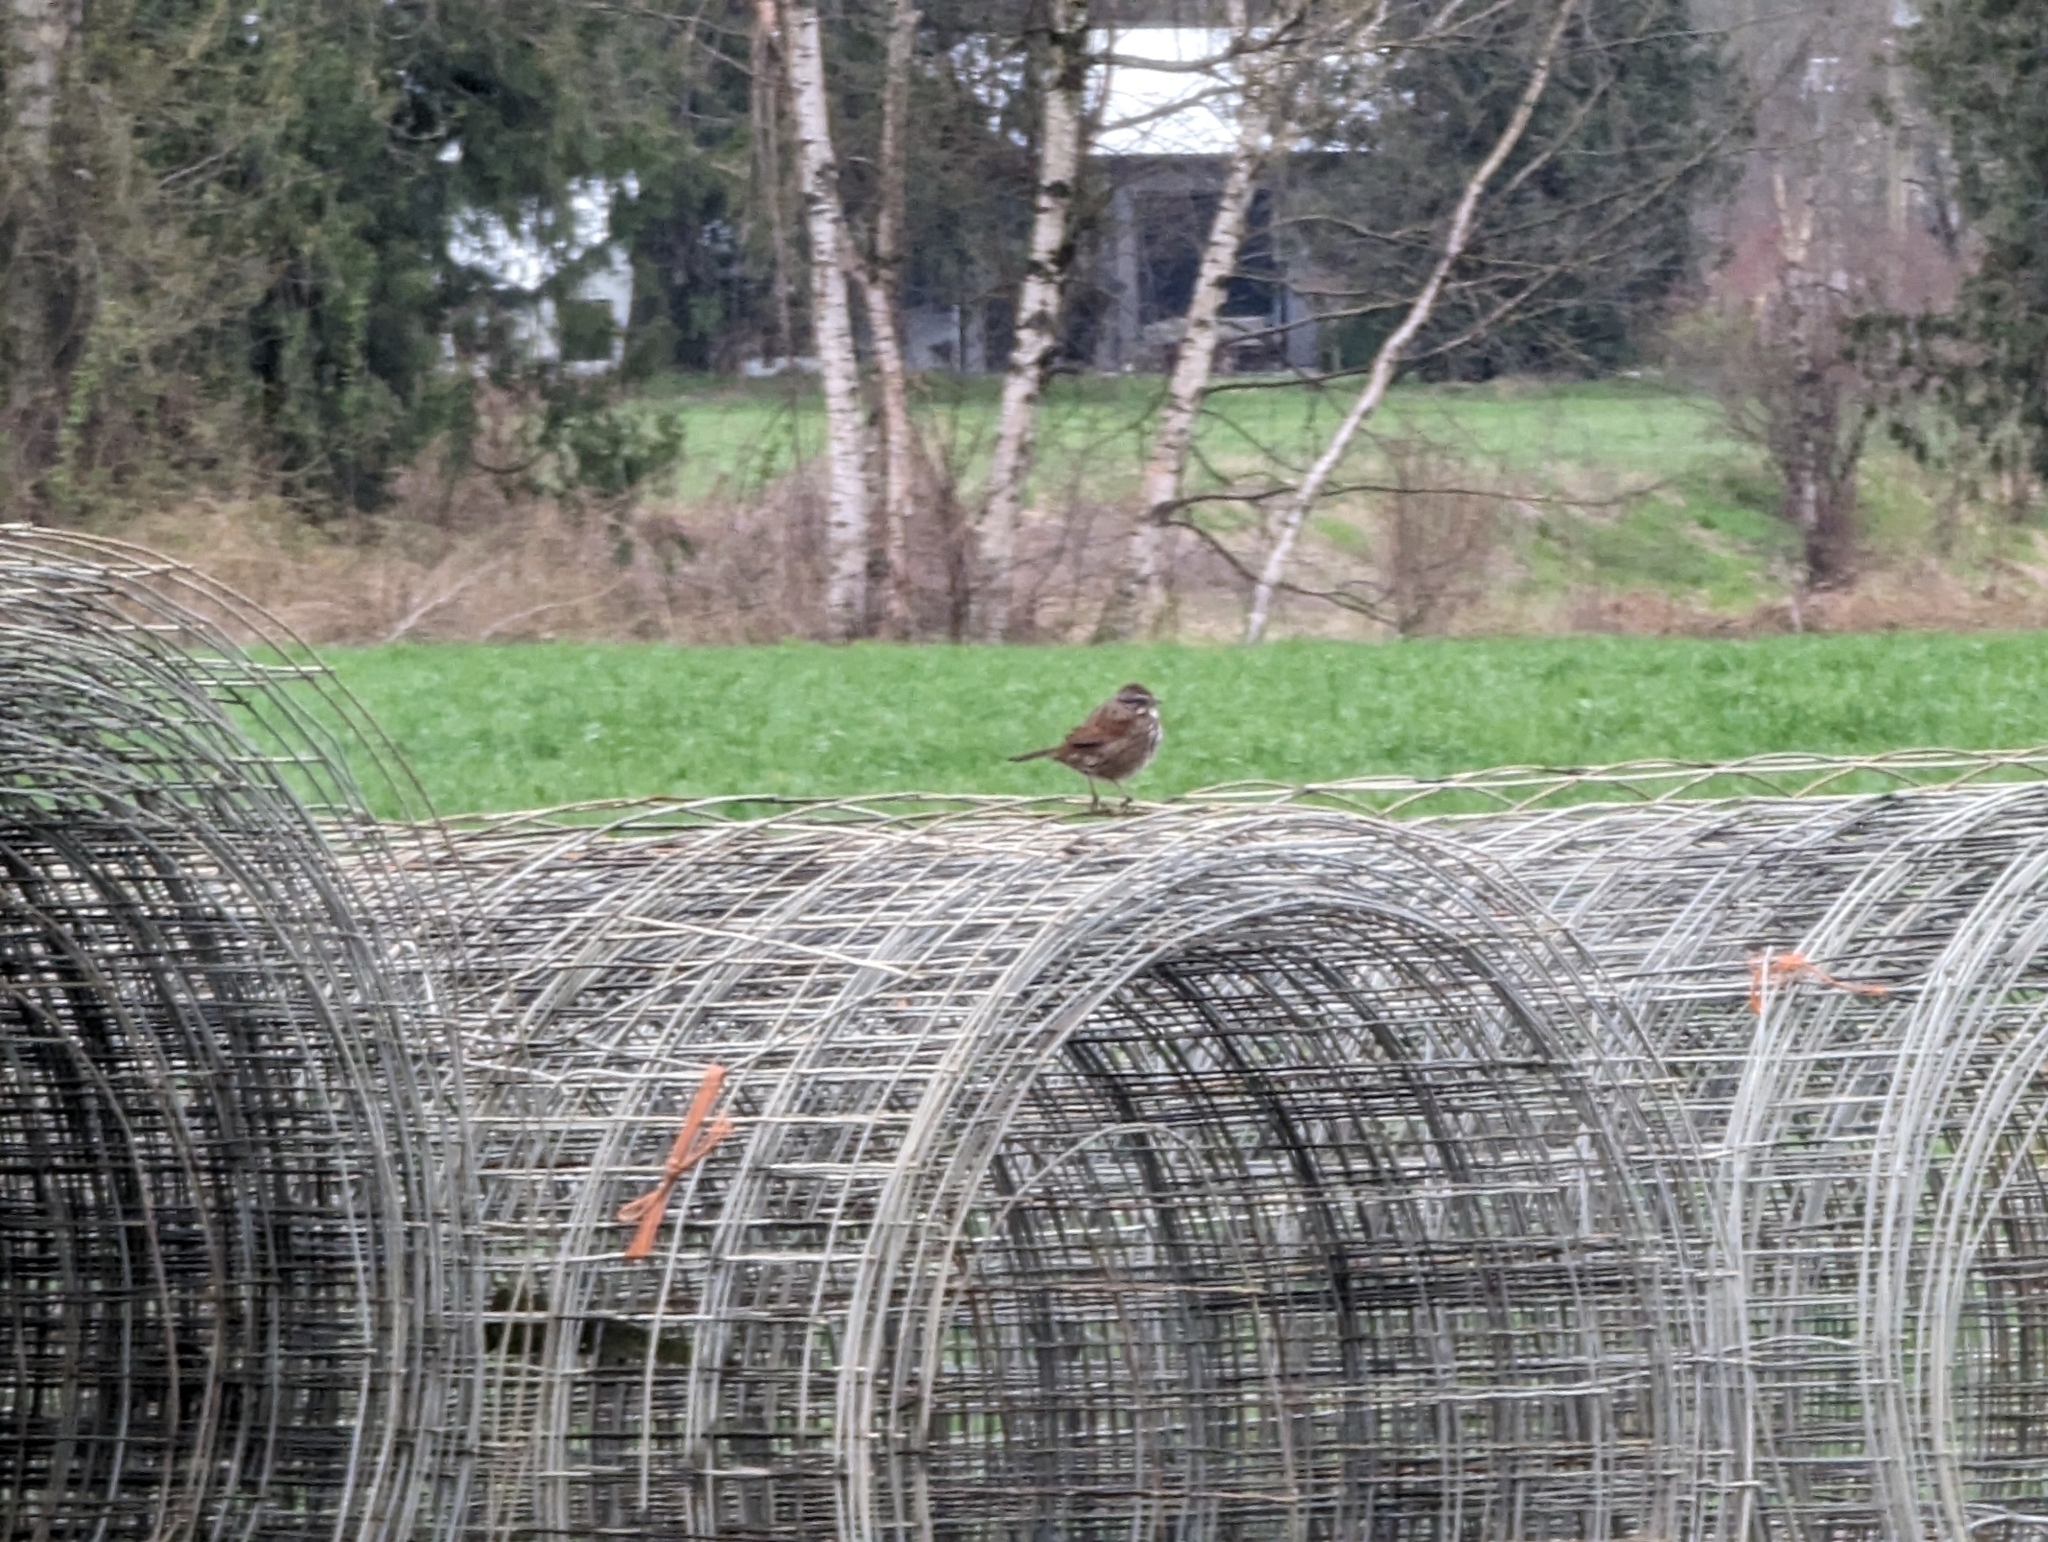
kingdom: Animalia
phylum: Chordata
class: Aves
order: Passeriformes
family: Passerellidae
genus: Melospiza
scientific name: Melospiza melodia
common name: Song sparrow
